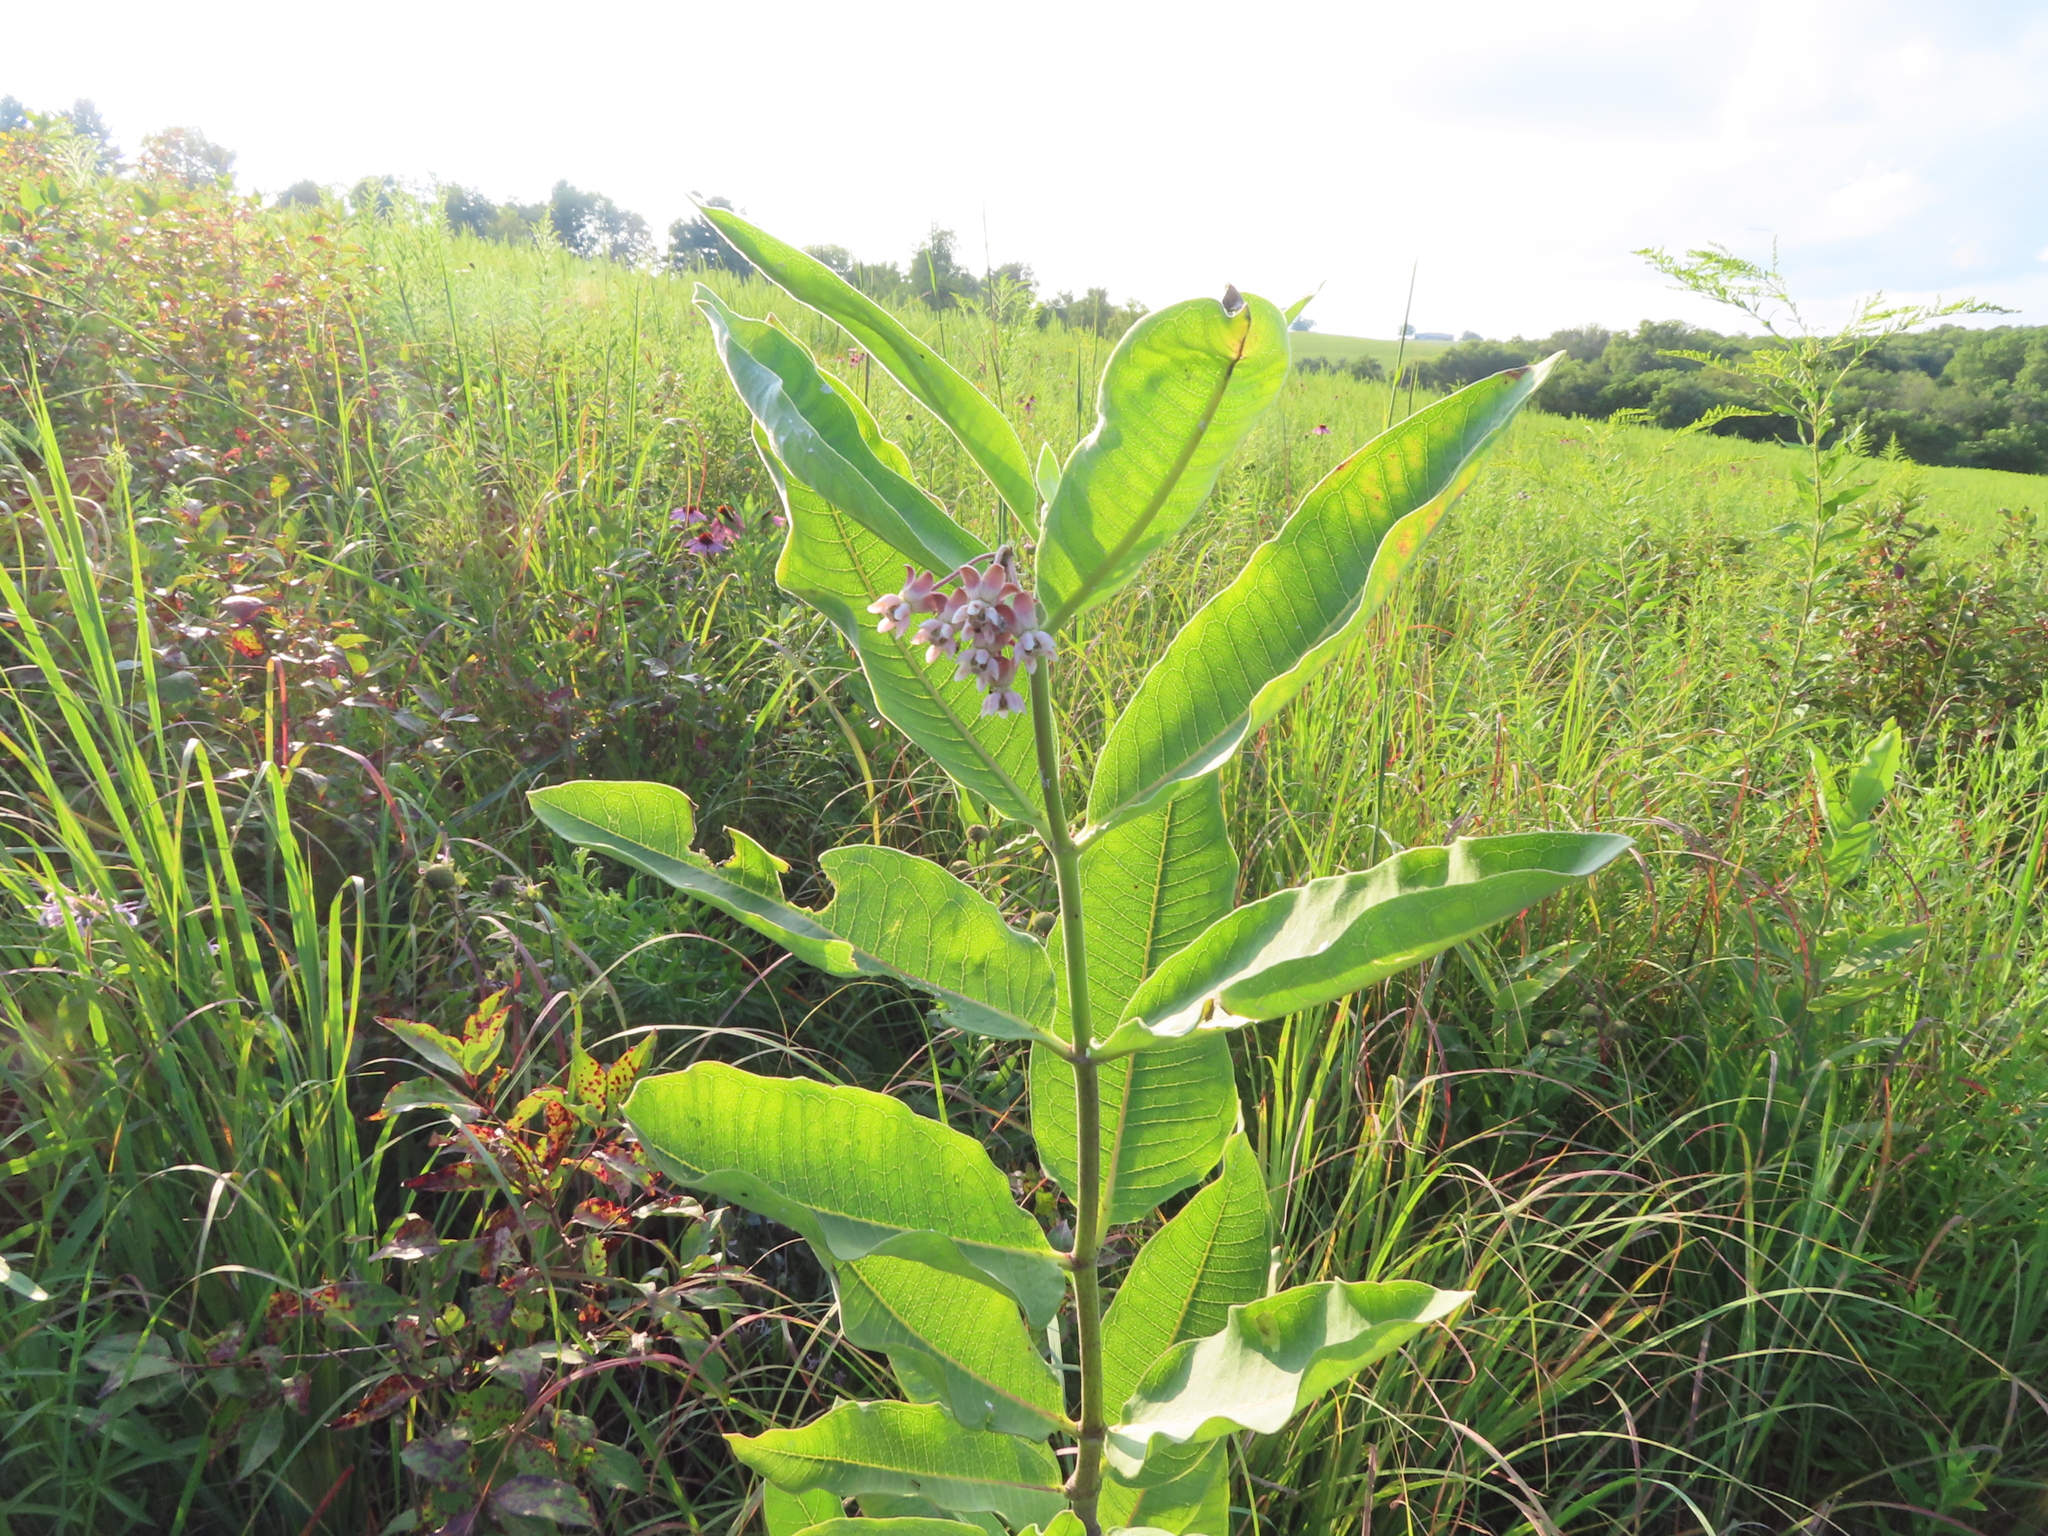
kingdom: Plantae
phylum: Tracheophyta
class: Magnoliopsida
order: Gentianales
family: Apocynaceae
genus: Asclepias
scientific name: Asclepias syriaca
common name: Common milkweed
